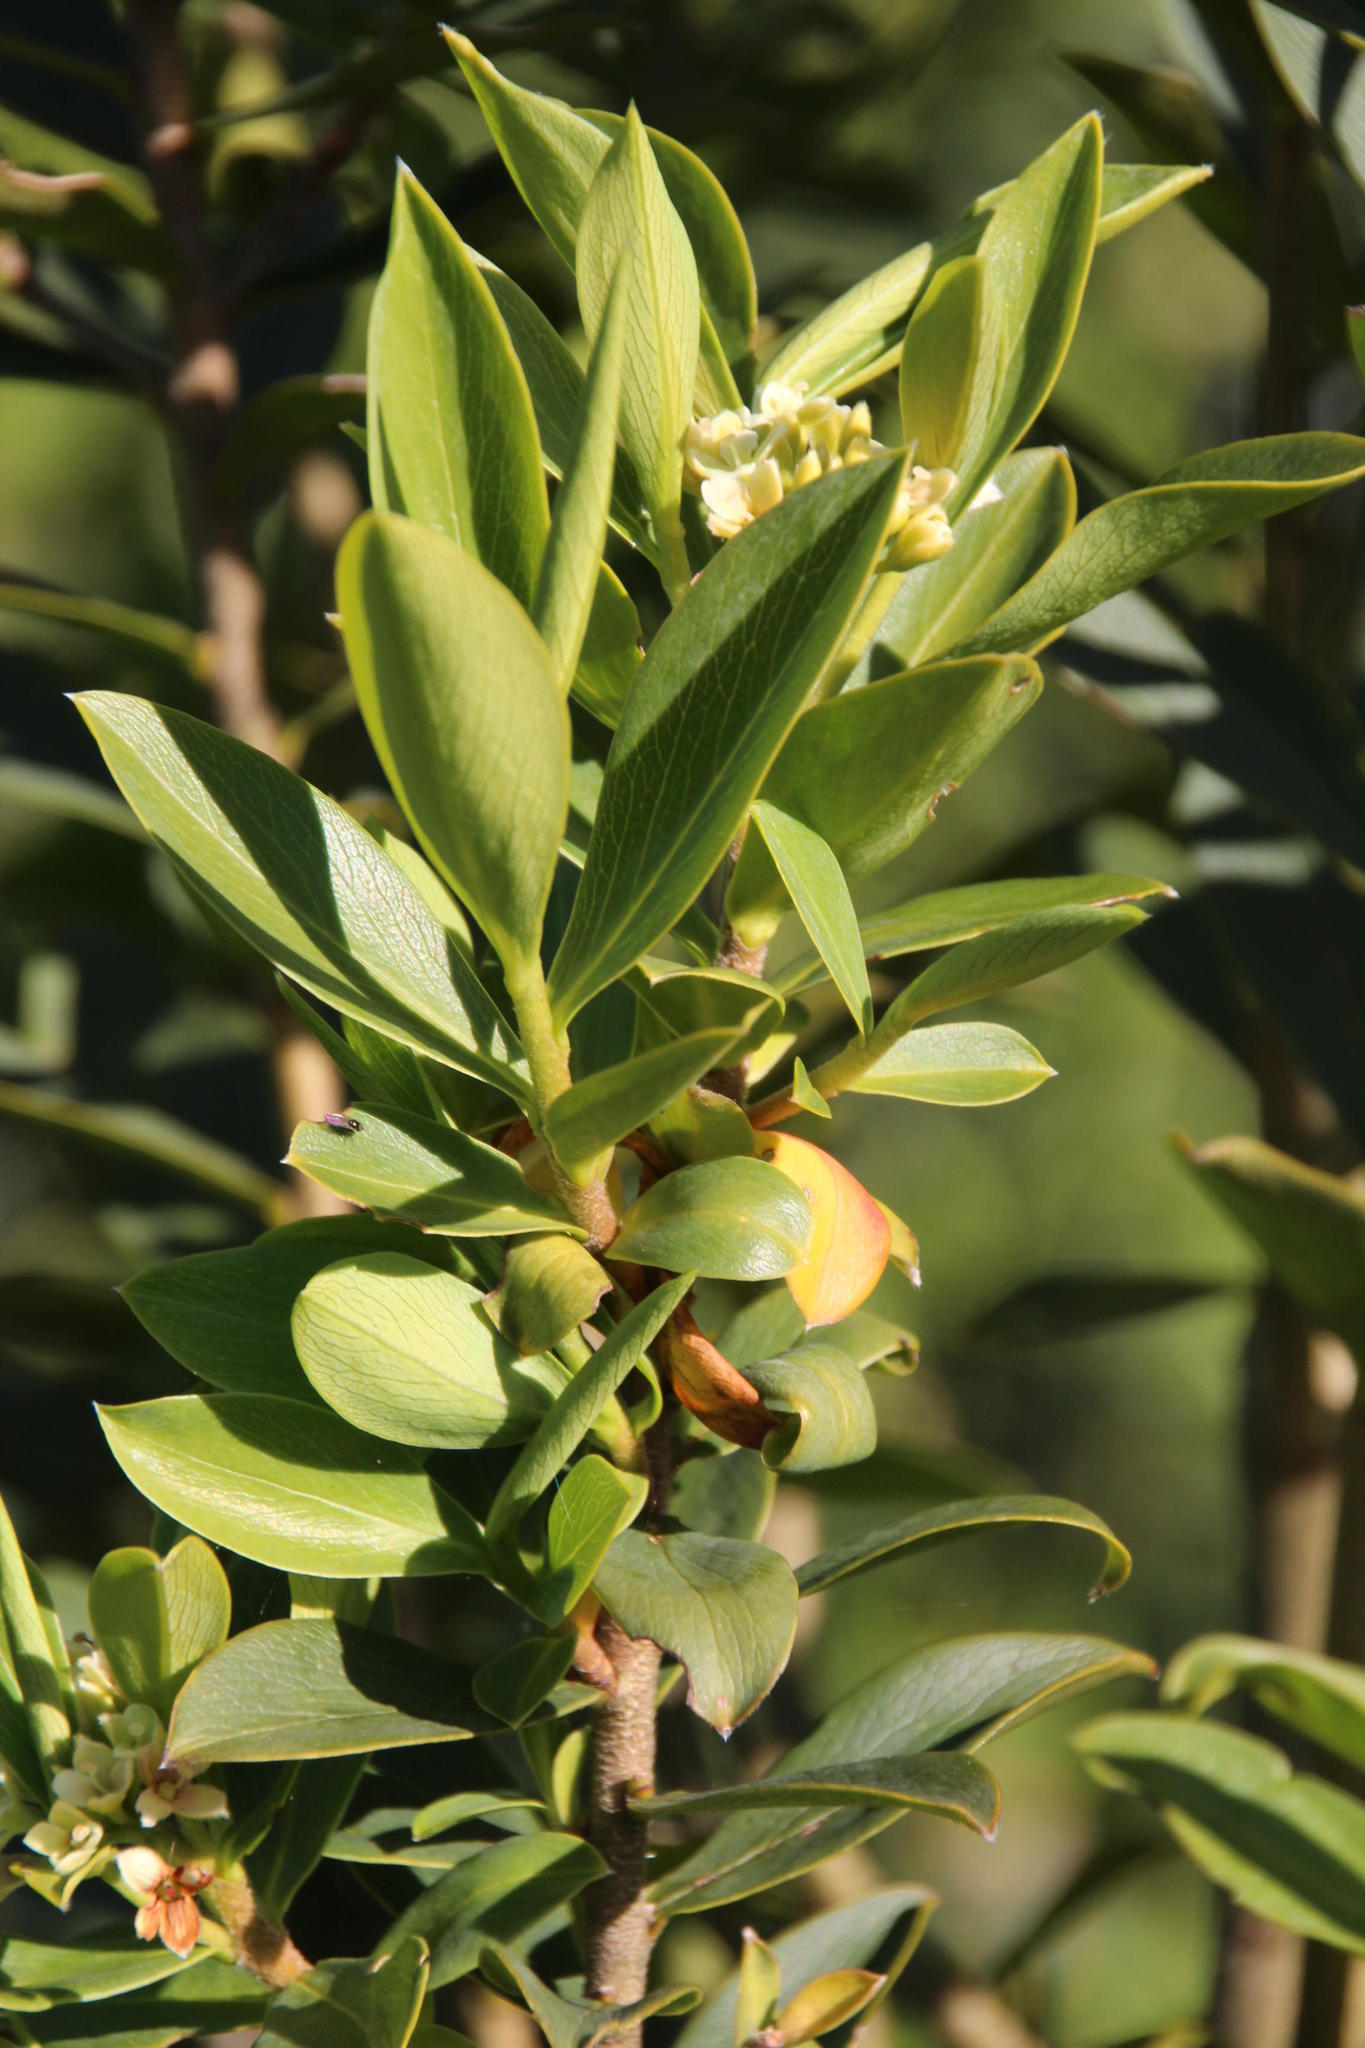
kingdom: Plantae
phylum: Tracheophyta
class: Magnoliopsida
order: Malvales
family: Thymelaeaceae
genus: Ovidia
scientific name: Ovidia andina
